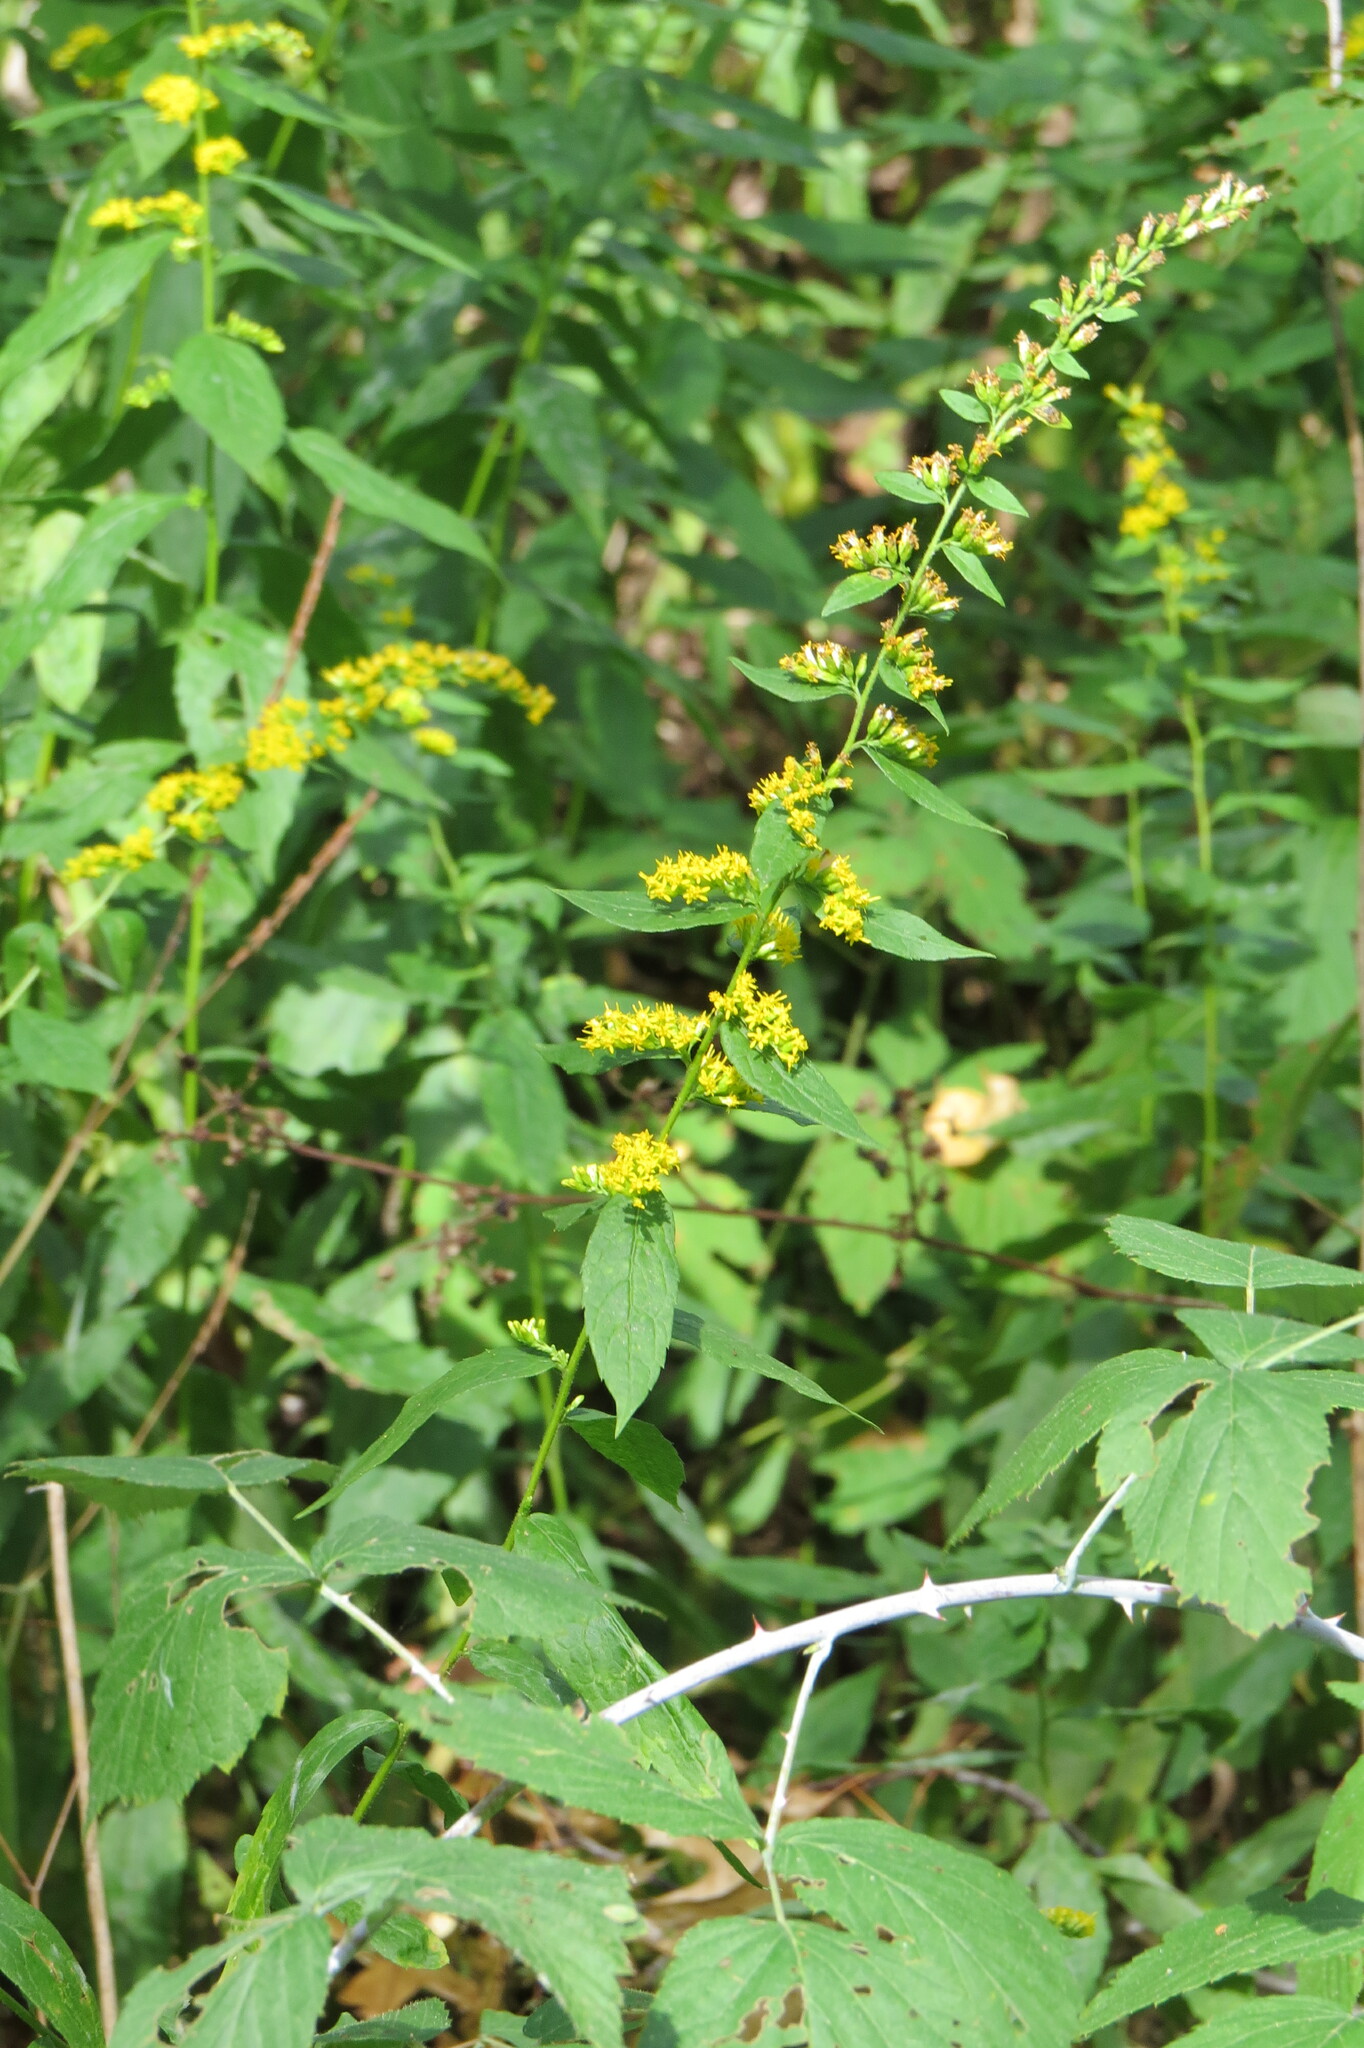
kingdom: Plantae
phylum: Tracheophyta
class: Magnoliopsida
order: Asterales
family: Asteraceae
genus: Solidago
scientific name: Solidago rugosa
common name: Rough-stemmed goldenrod
